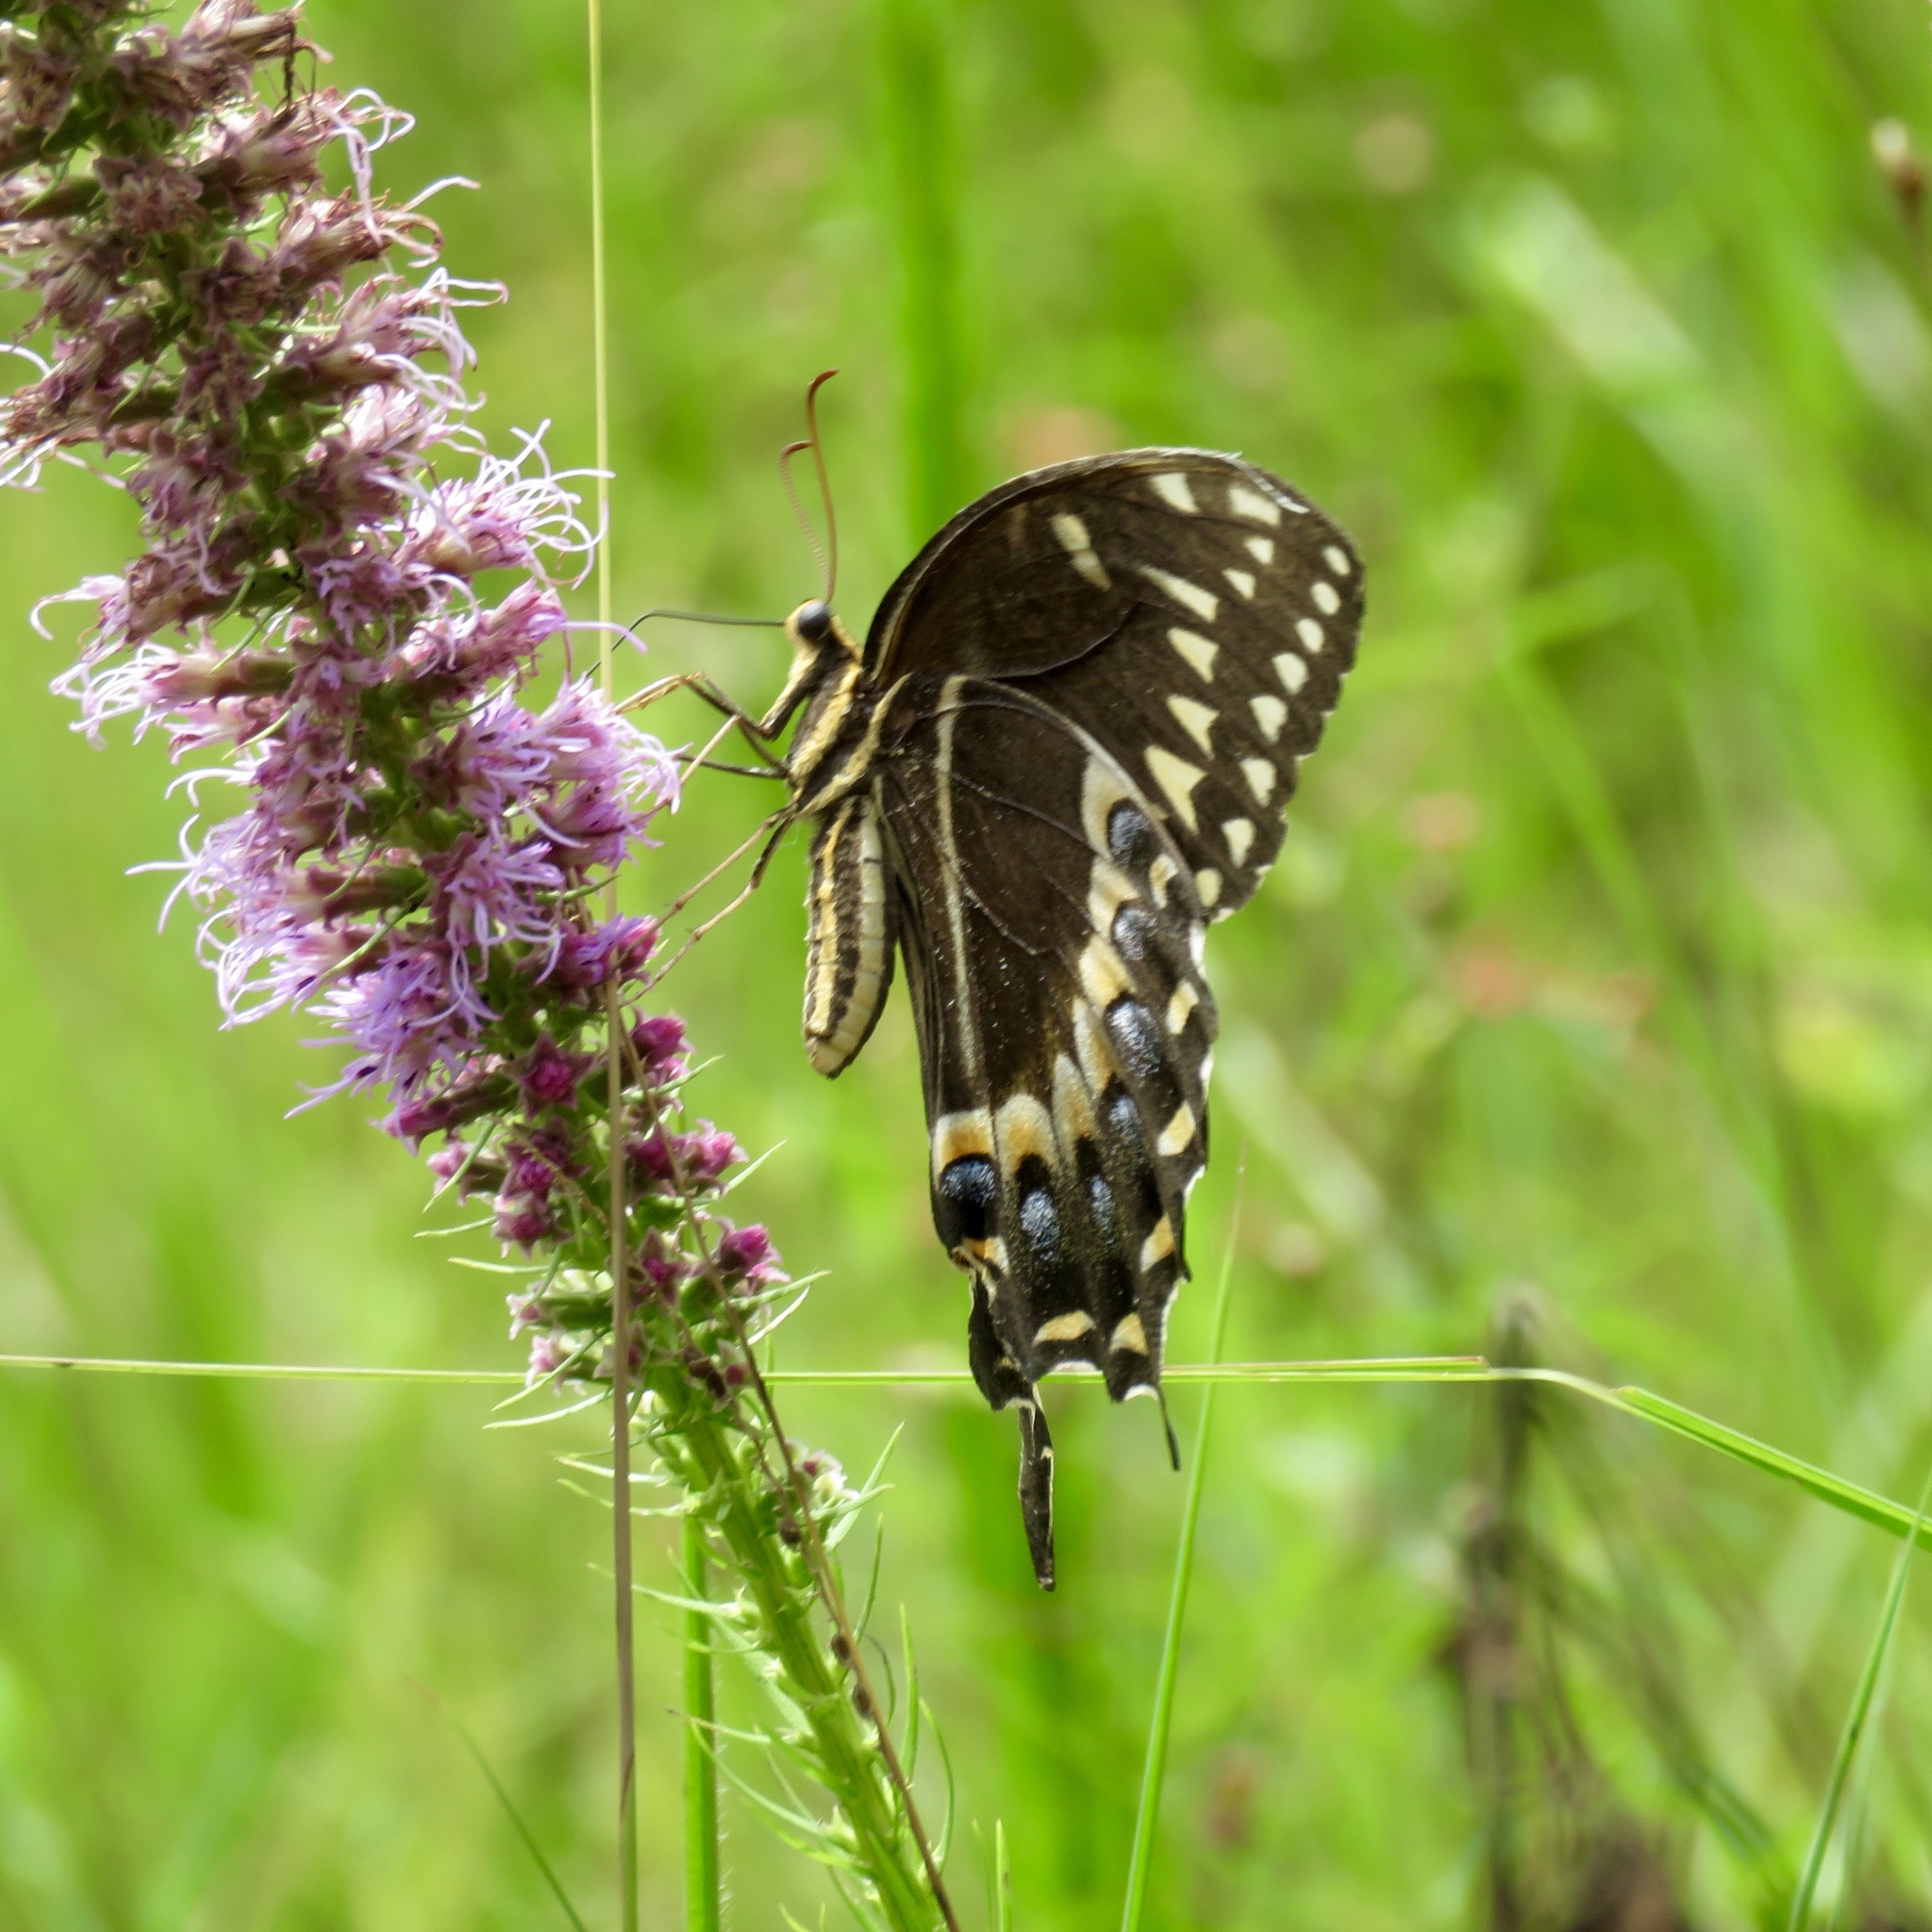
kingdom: Animalia
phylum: Arthropoda
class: Insecta
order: Lepidoptera
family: Papilionidae
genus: Papilio
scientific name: Papilio palamedes
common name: Palamedes swallowtail
